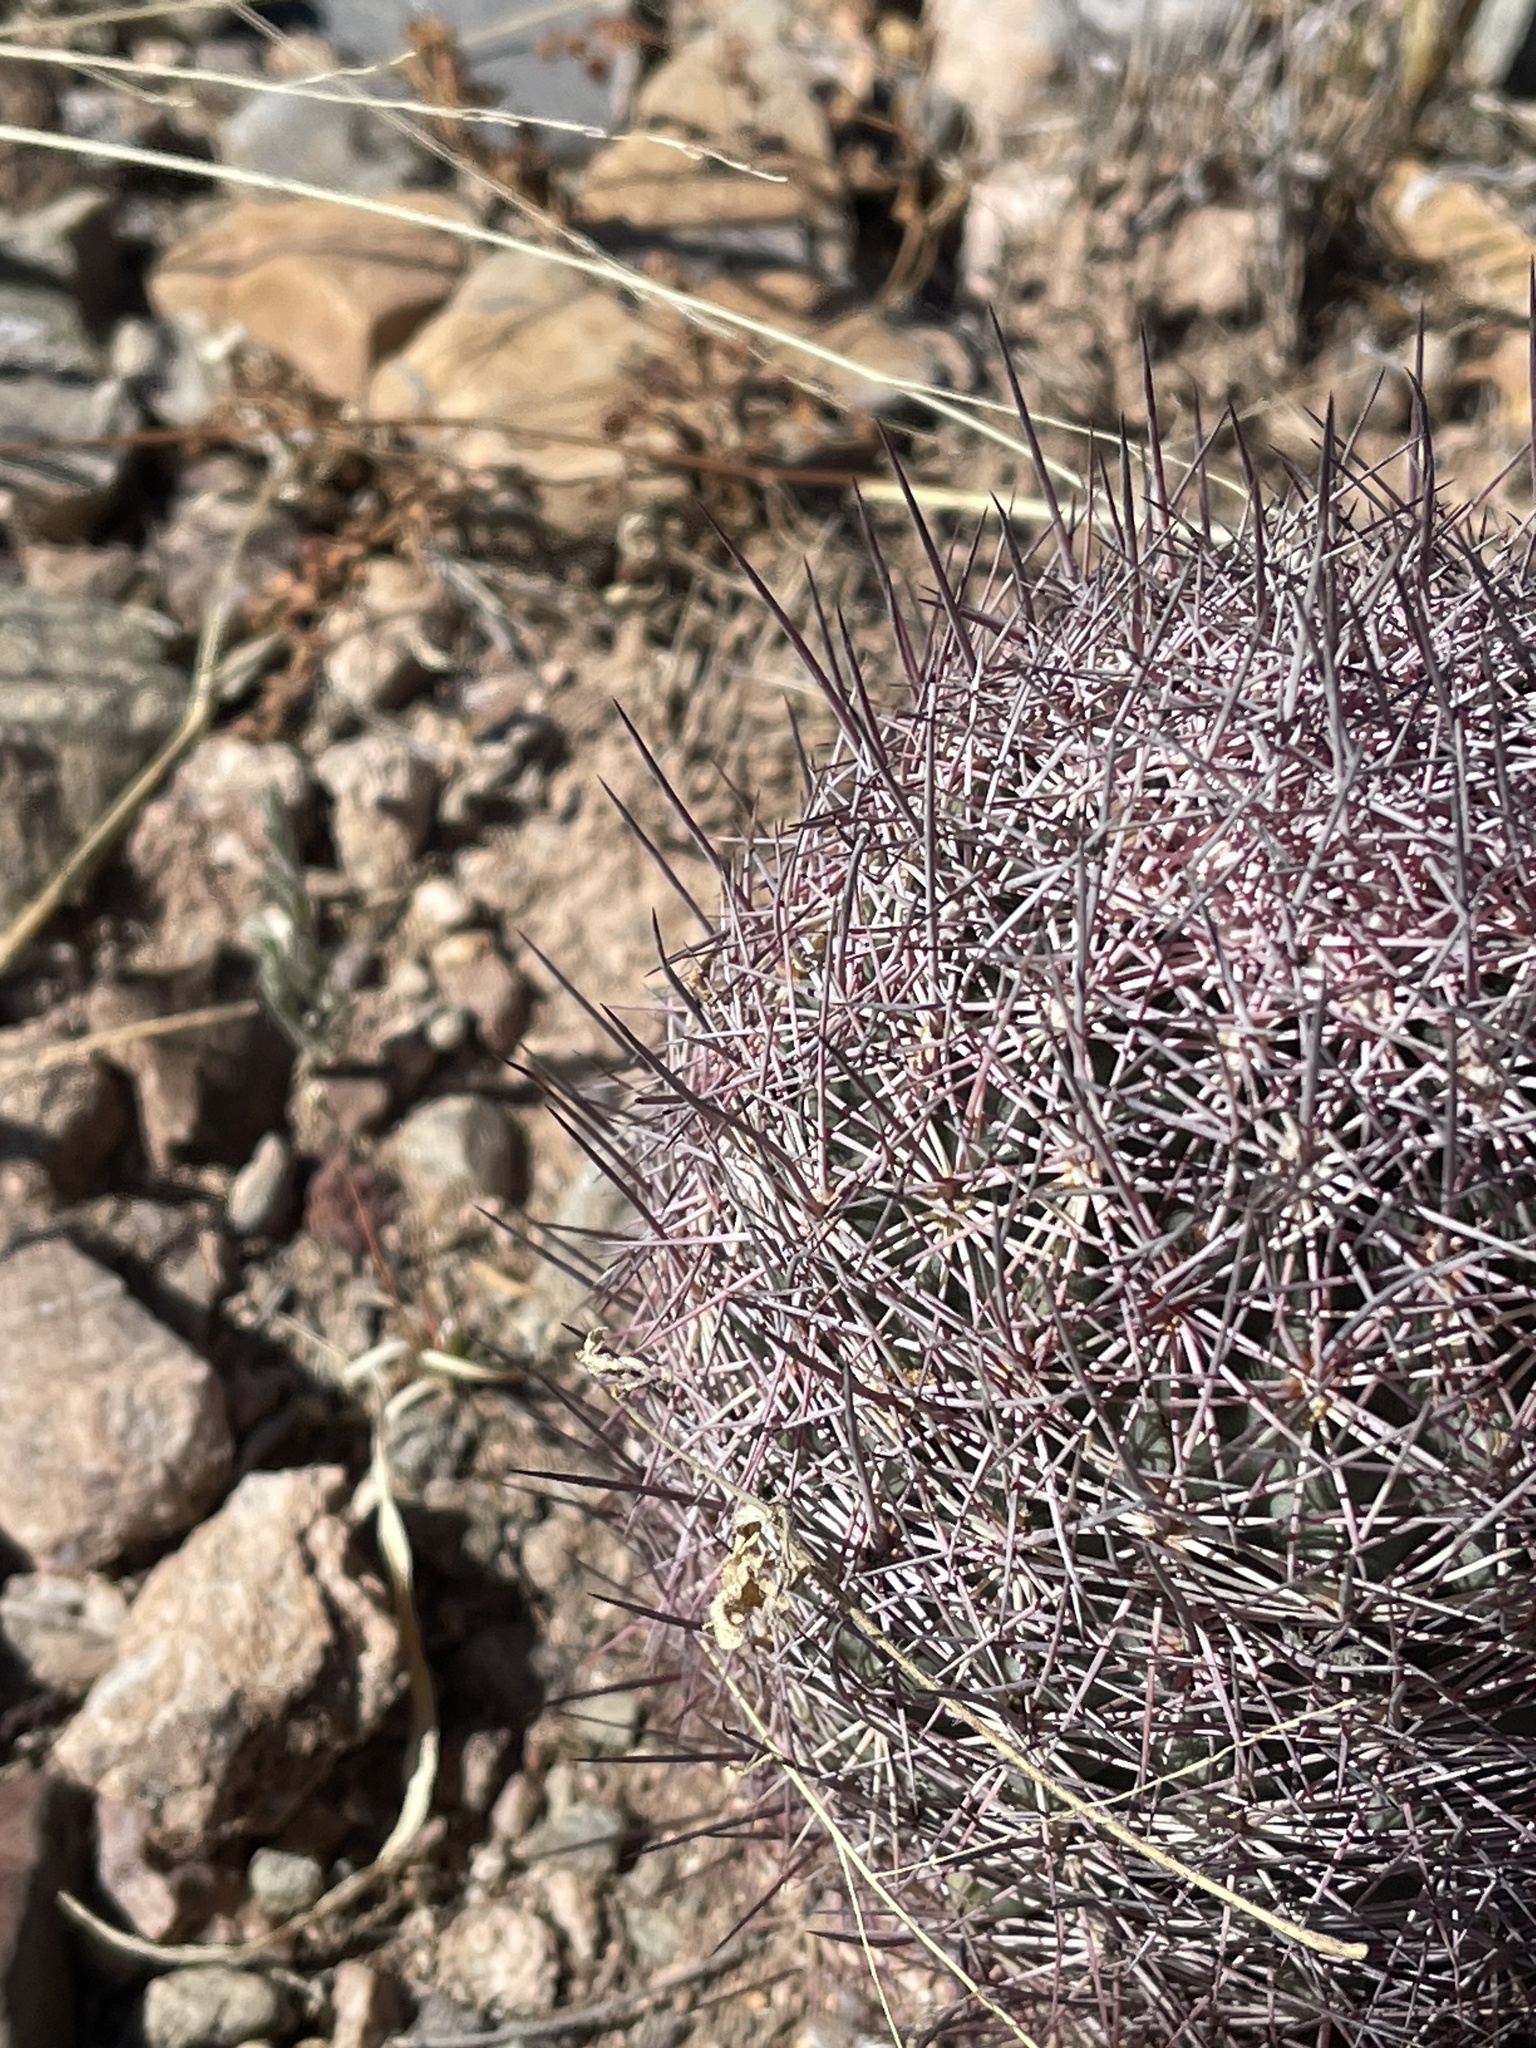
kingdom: Plantae
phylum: Tracheophyta
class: Magnoliopsida
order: Caryophyllales
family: Cactaceae
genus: Sclerocactus
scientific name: Sclerocactus johnsonii
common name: Eight-spine fishhook cactus
